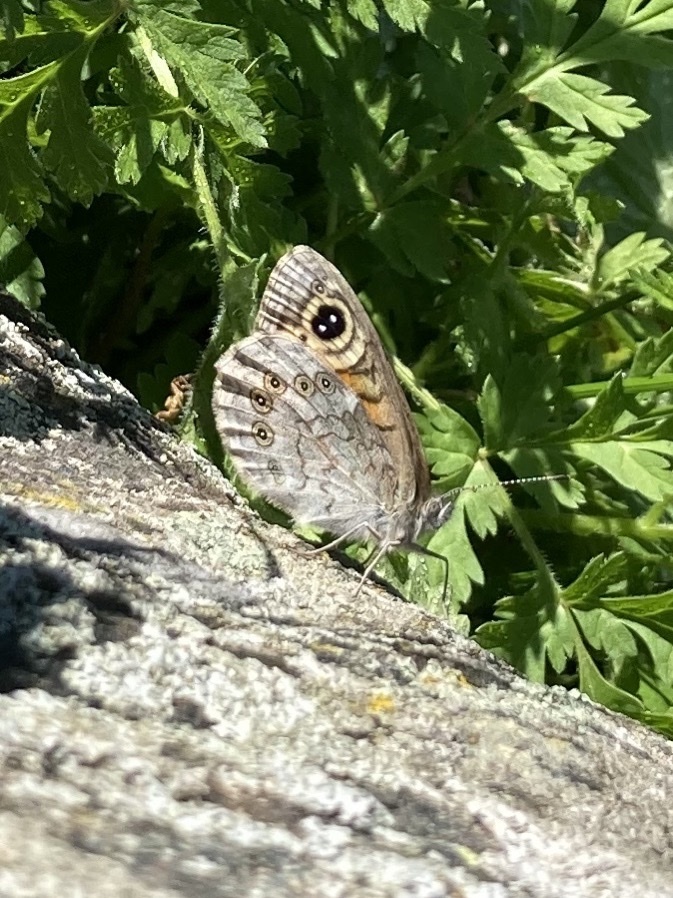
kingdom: Animalia
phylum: Arthropoda
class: Insecta
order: Lepidoptera
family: Nymphalidae
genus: Pararge
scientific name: Pararge Lasiommata maera
